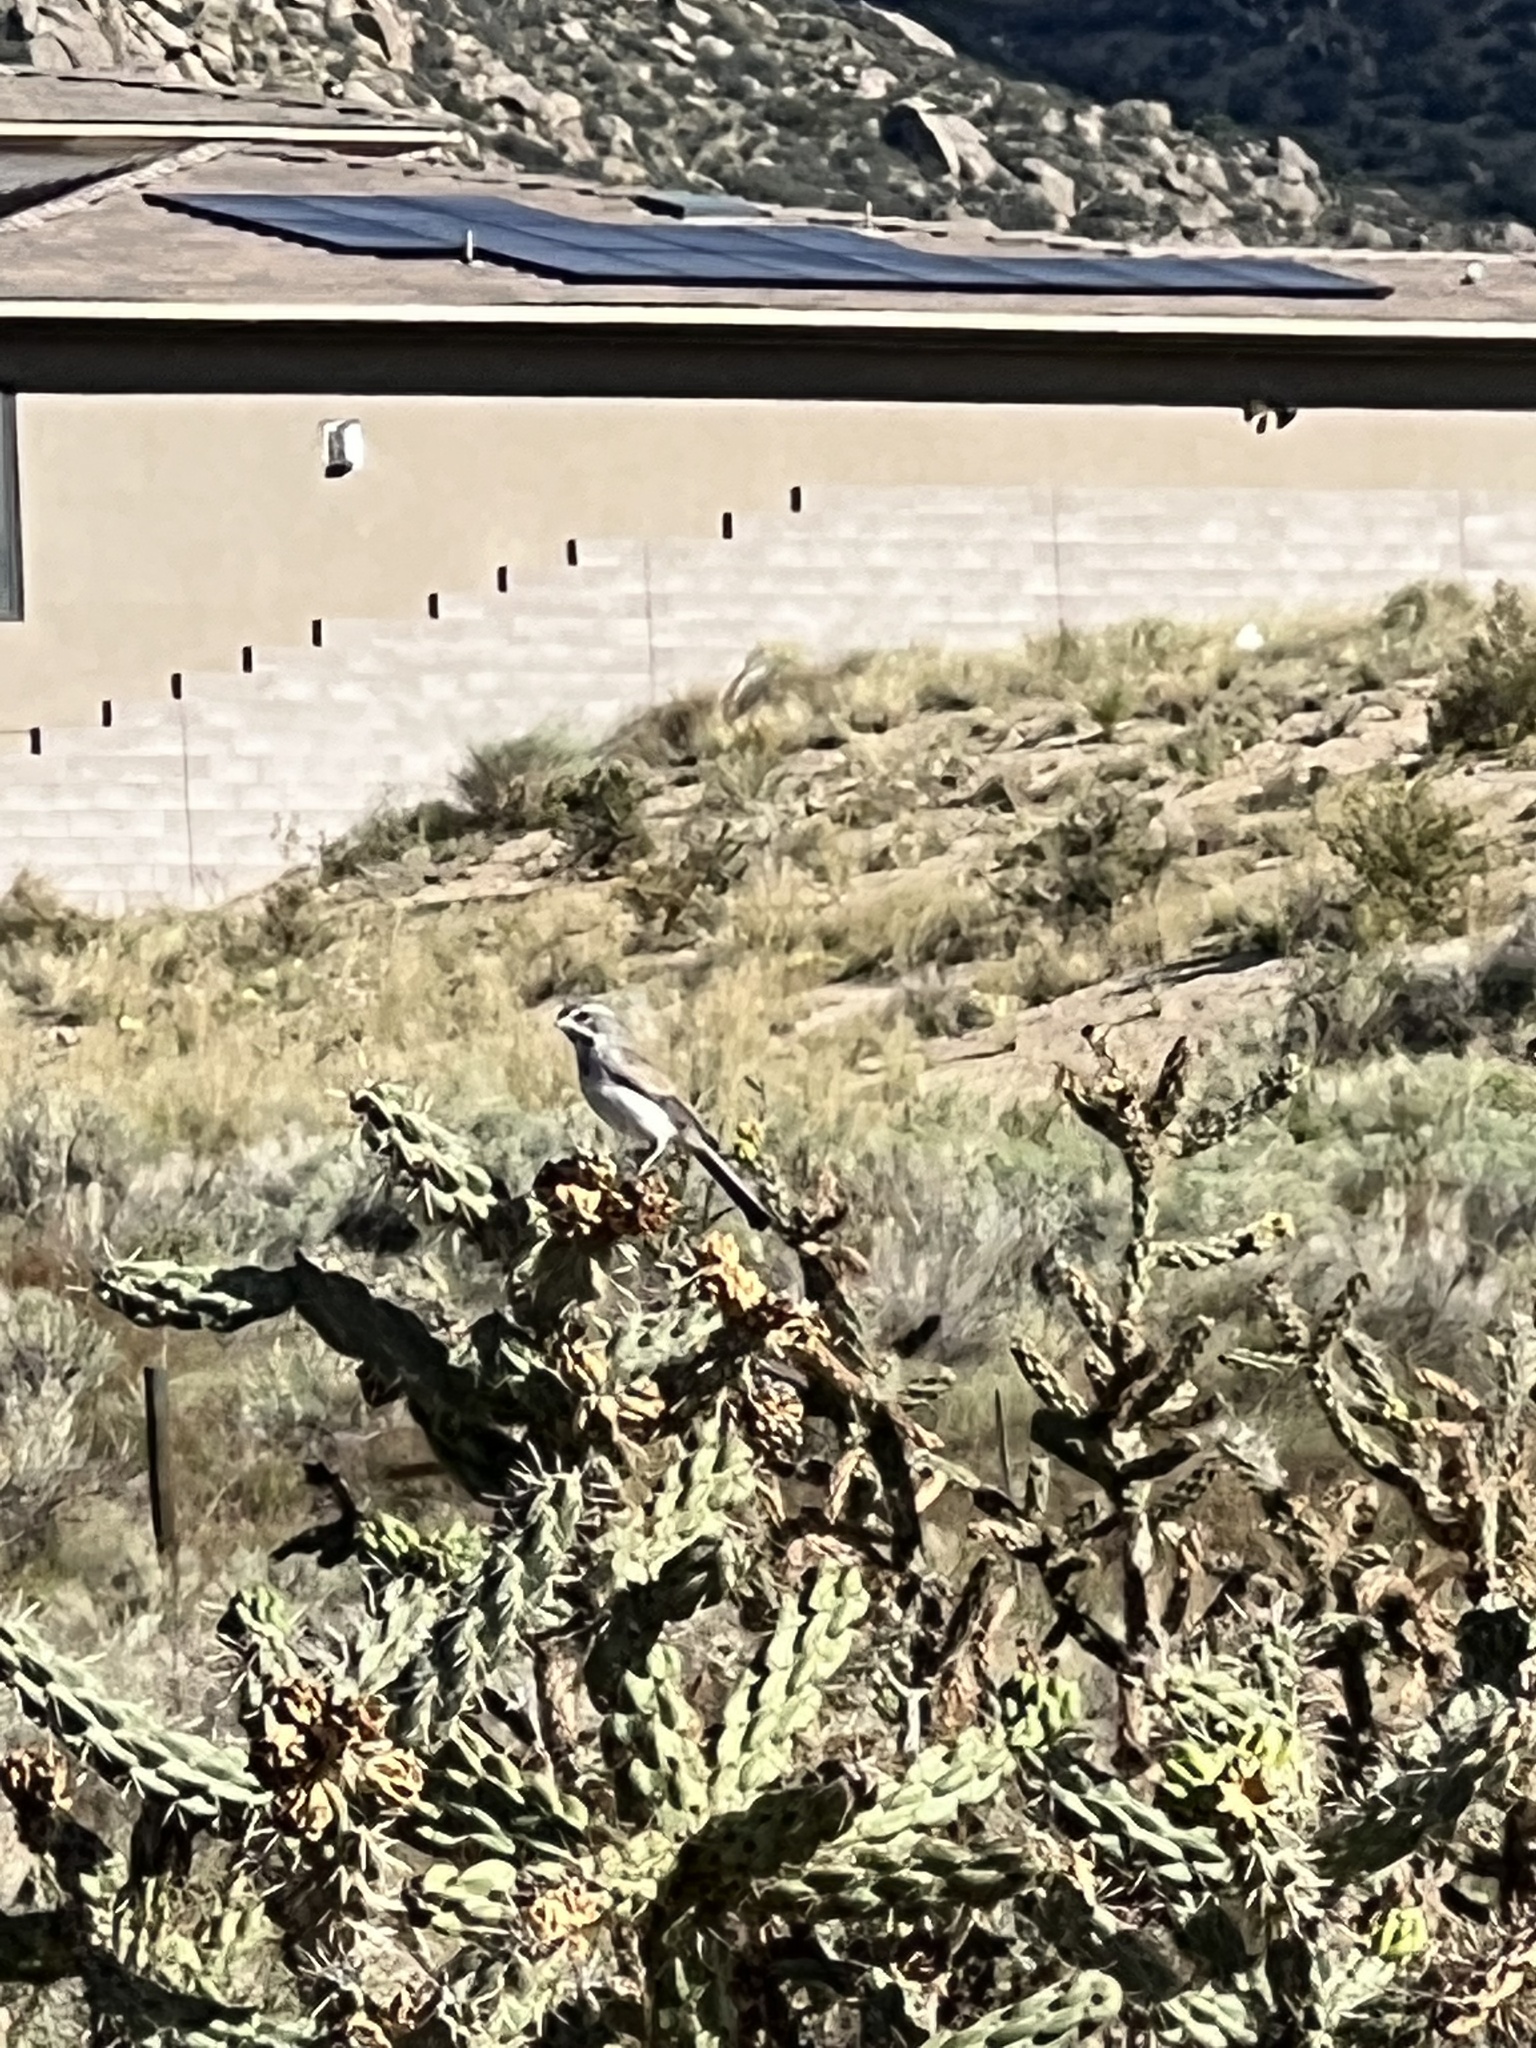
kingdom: Animalia
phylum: Chordata
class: Aves
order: Passeriformes
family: Passerellidae
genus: Amphispiza
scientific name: Amphispiza bilineata
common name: Black-throated sparrow
